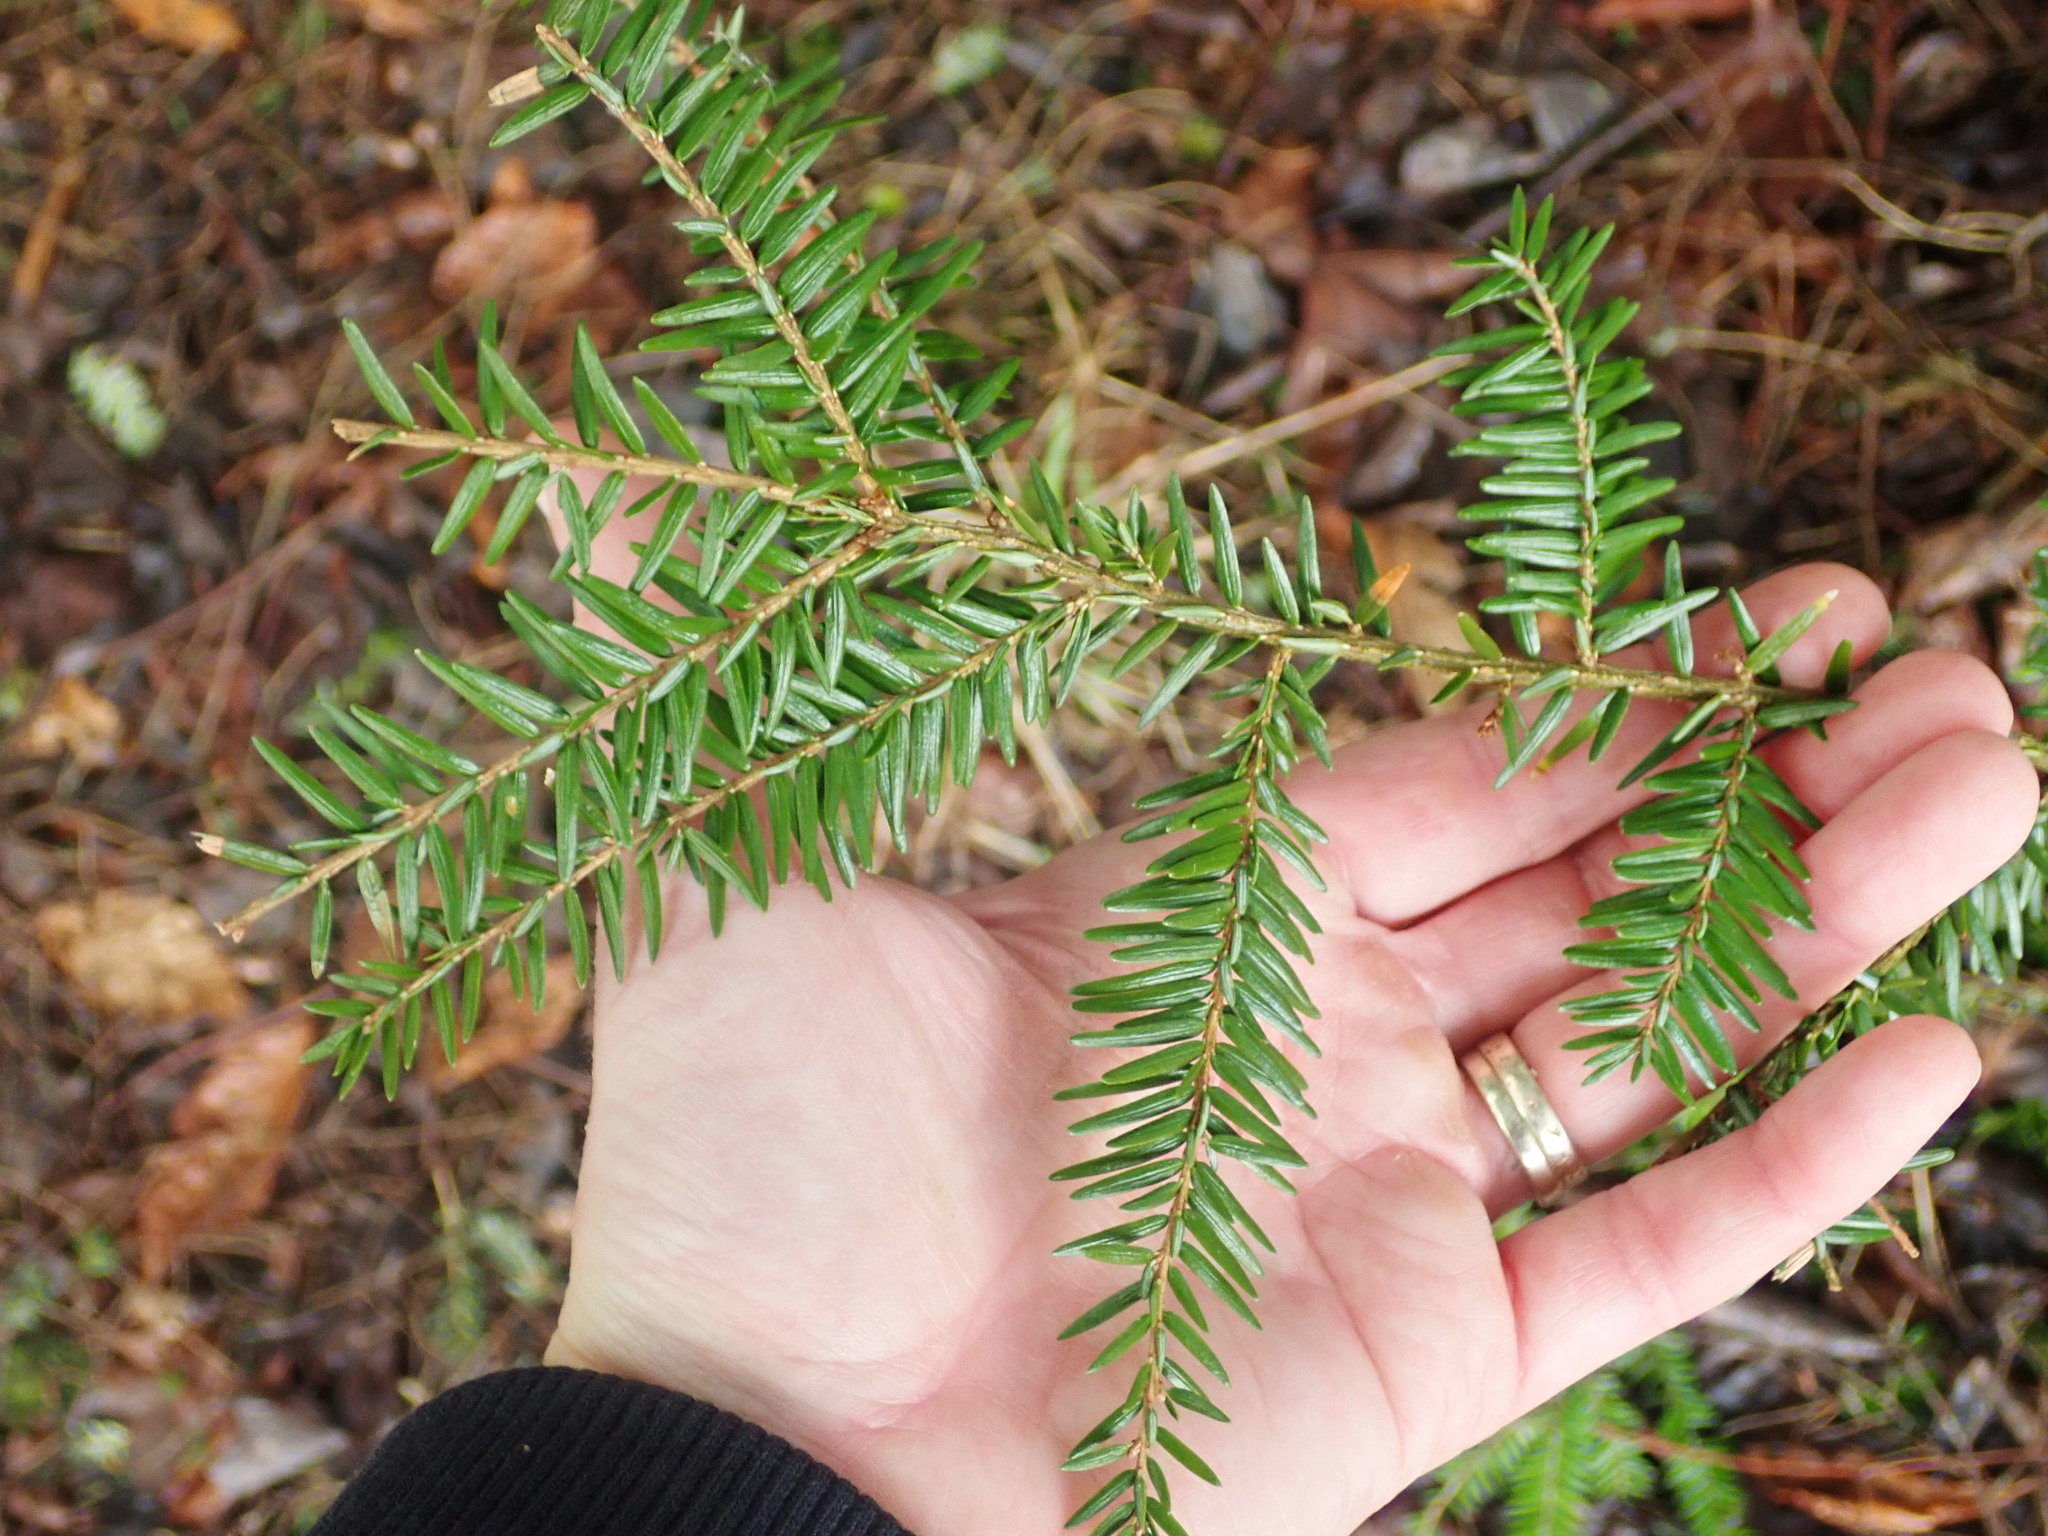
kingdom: Plantae
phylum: Tracheophyta
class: Pinopsida
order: Pinales
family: Pinaceae
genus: Tsuga
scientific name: Tsuga canadensis
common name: Eastern hemlock
